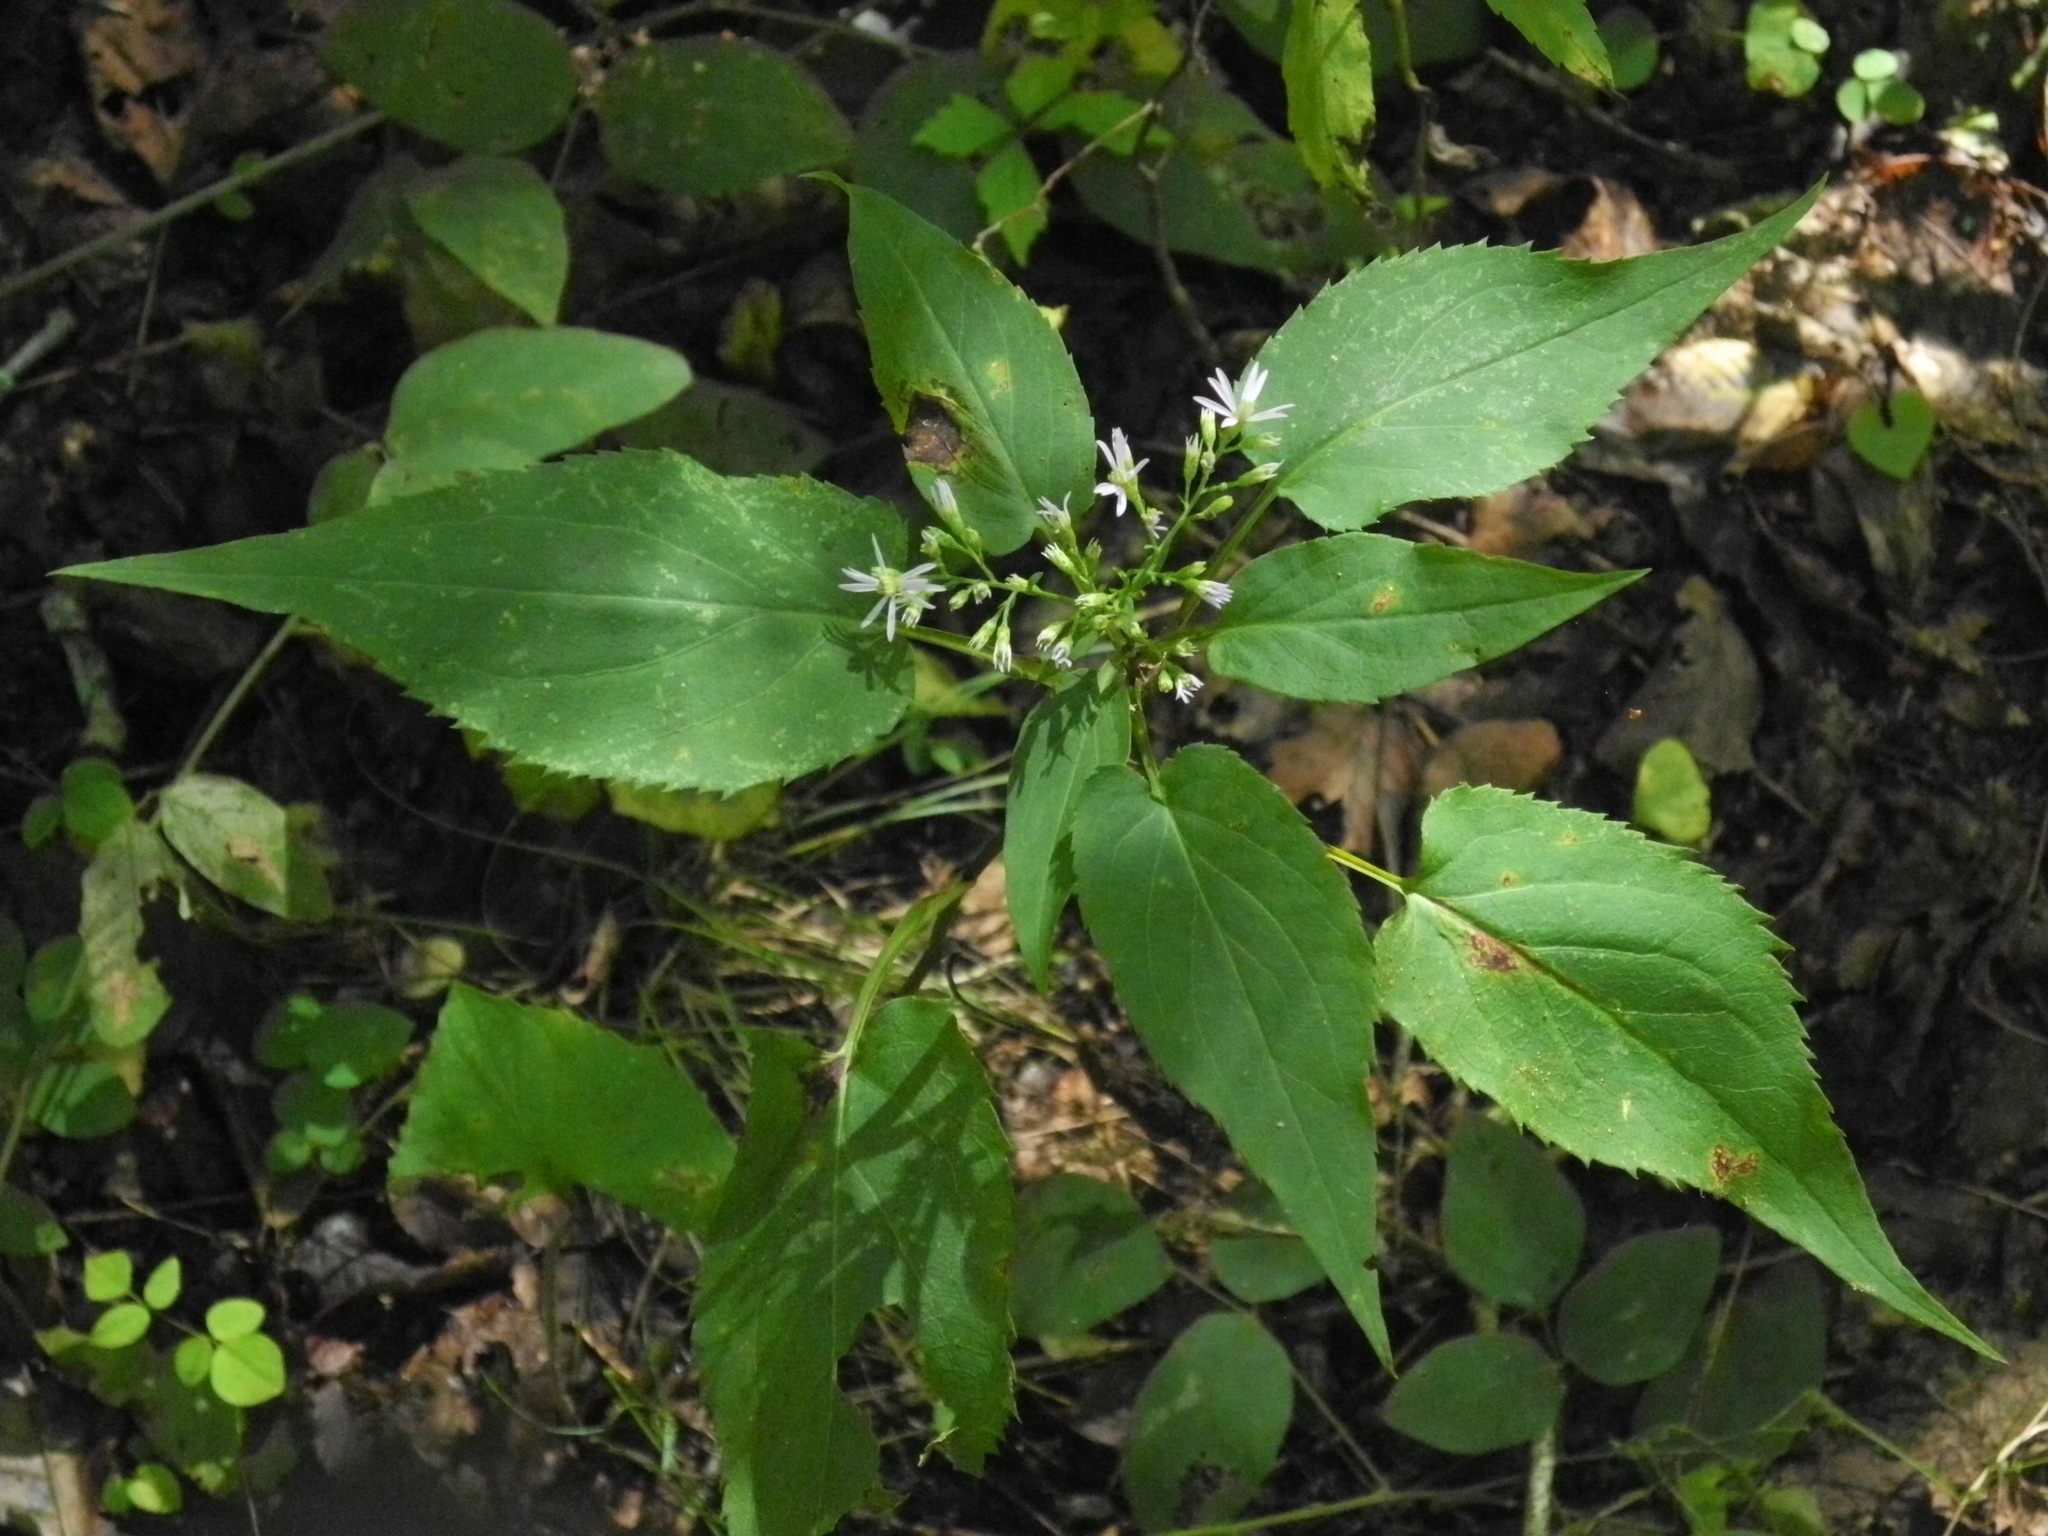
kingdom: Plantae
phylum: Tracheophyta
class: Magnoliopsida
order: Asterales
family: Asteraceae
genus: Symphyotrichum
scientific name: Symphyotrichum cordifolium
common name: Beeweed
